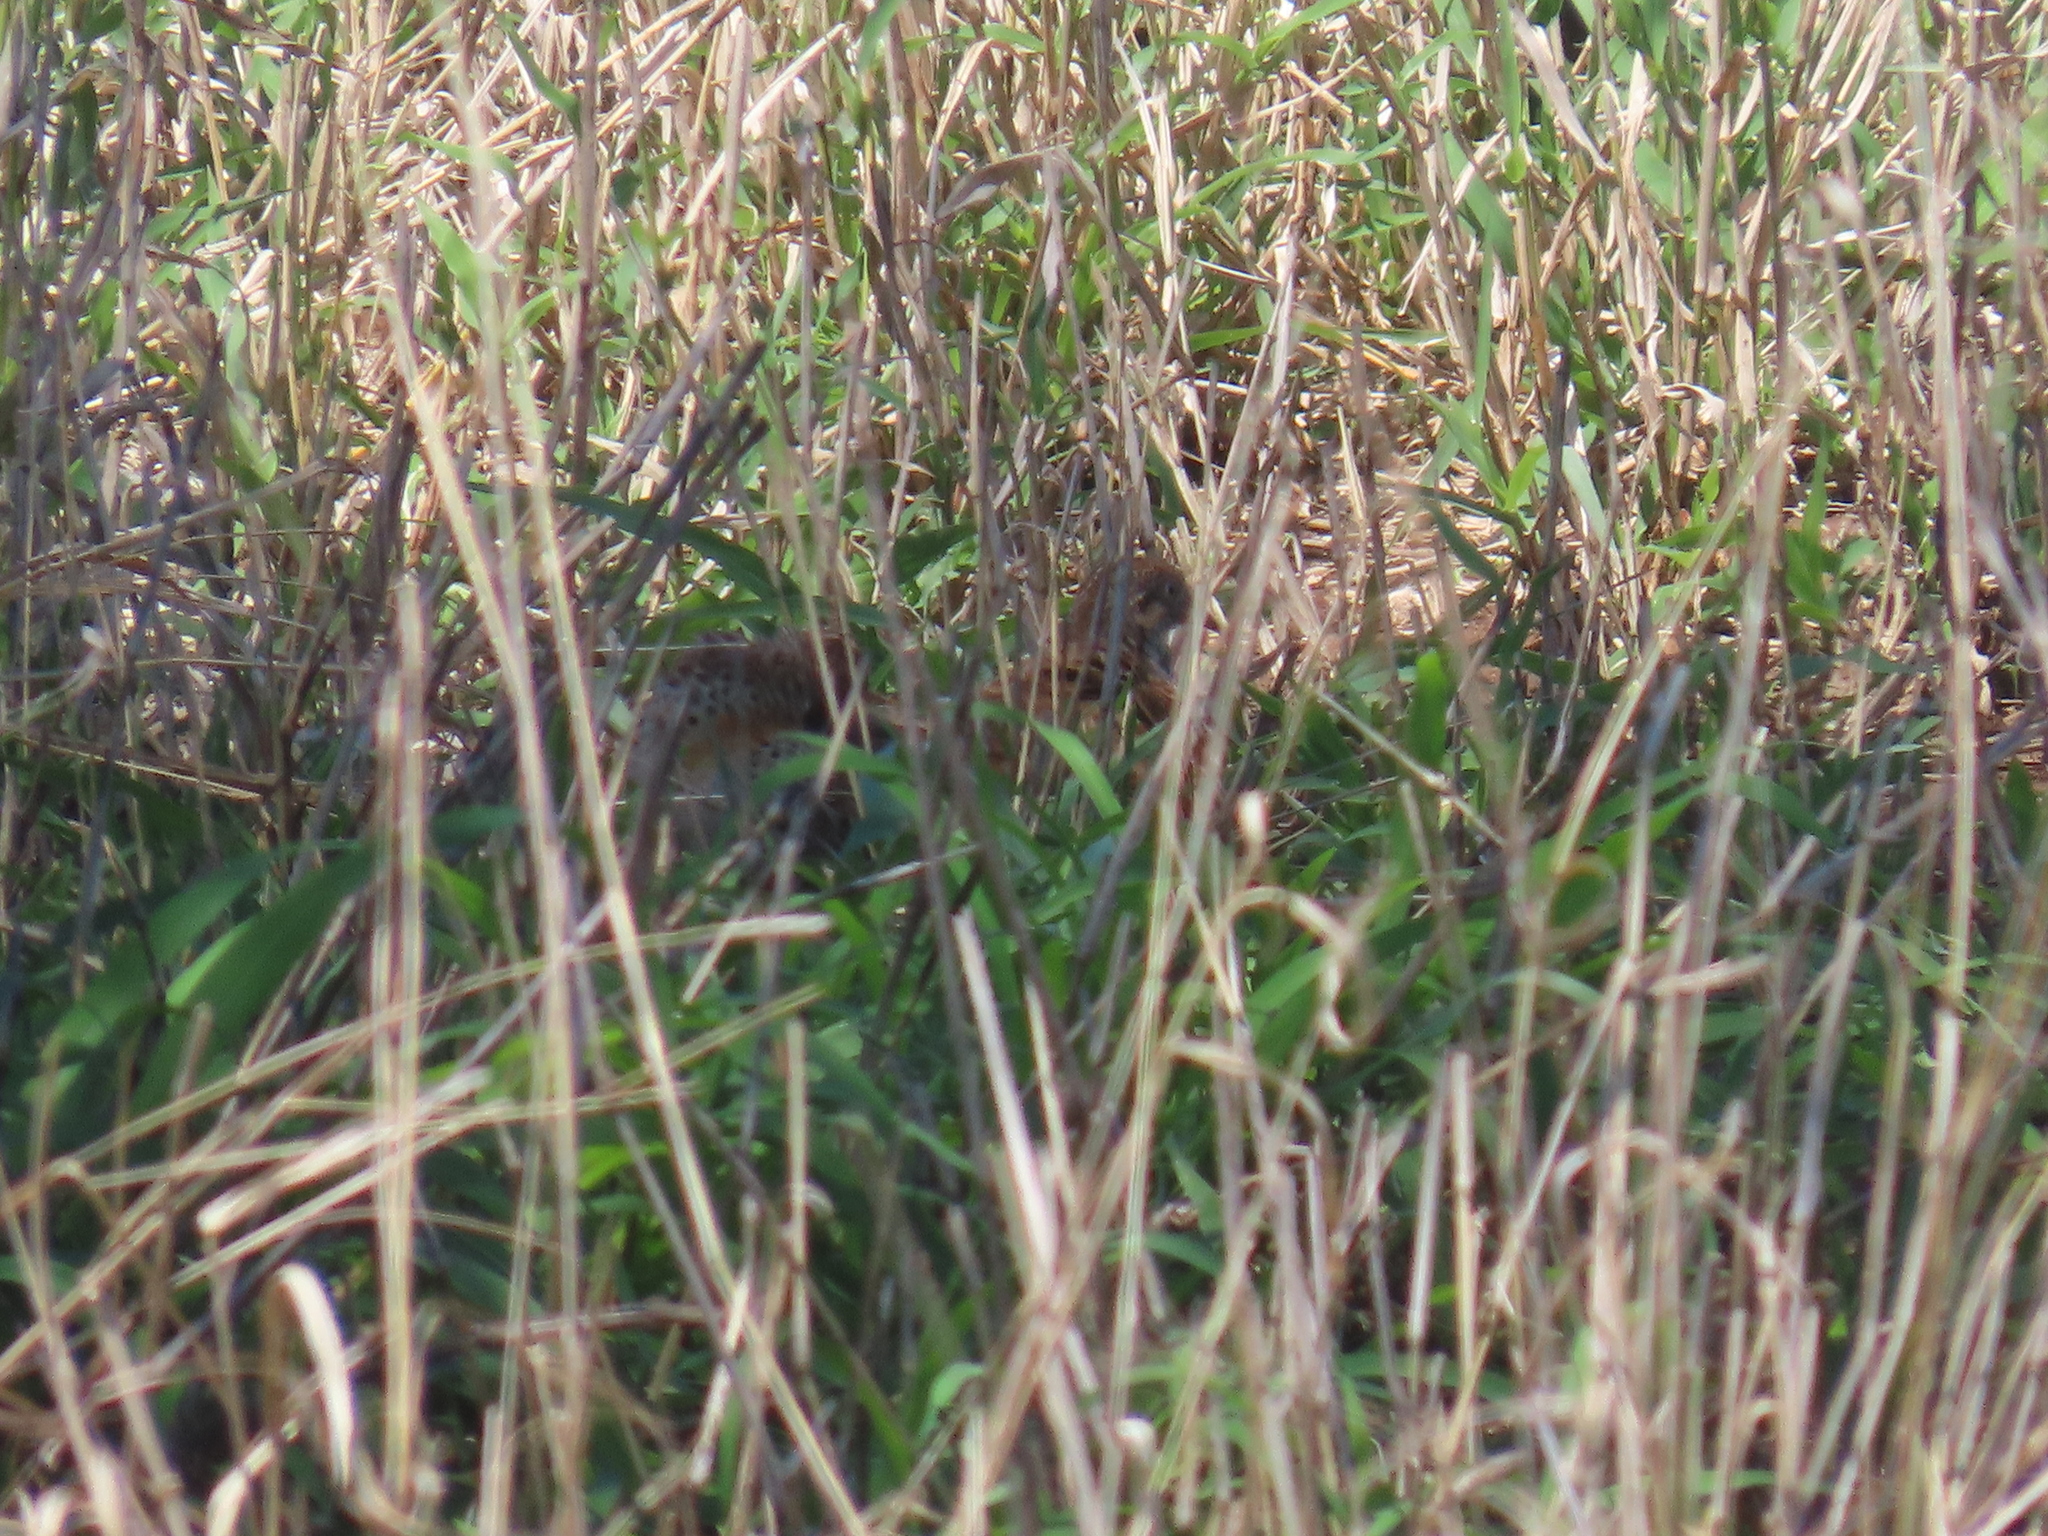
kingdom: Animalia
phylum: Chordata
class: Aves
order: Charadriiformes
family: Turnicidae
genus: Turnix
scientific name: Turnix sylvaticus
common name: Common buttonquail
